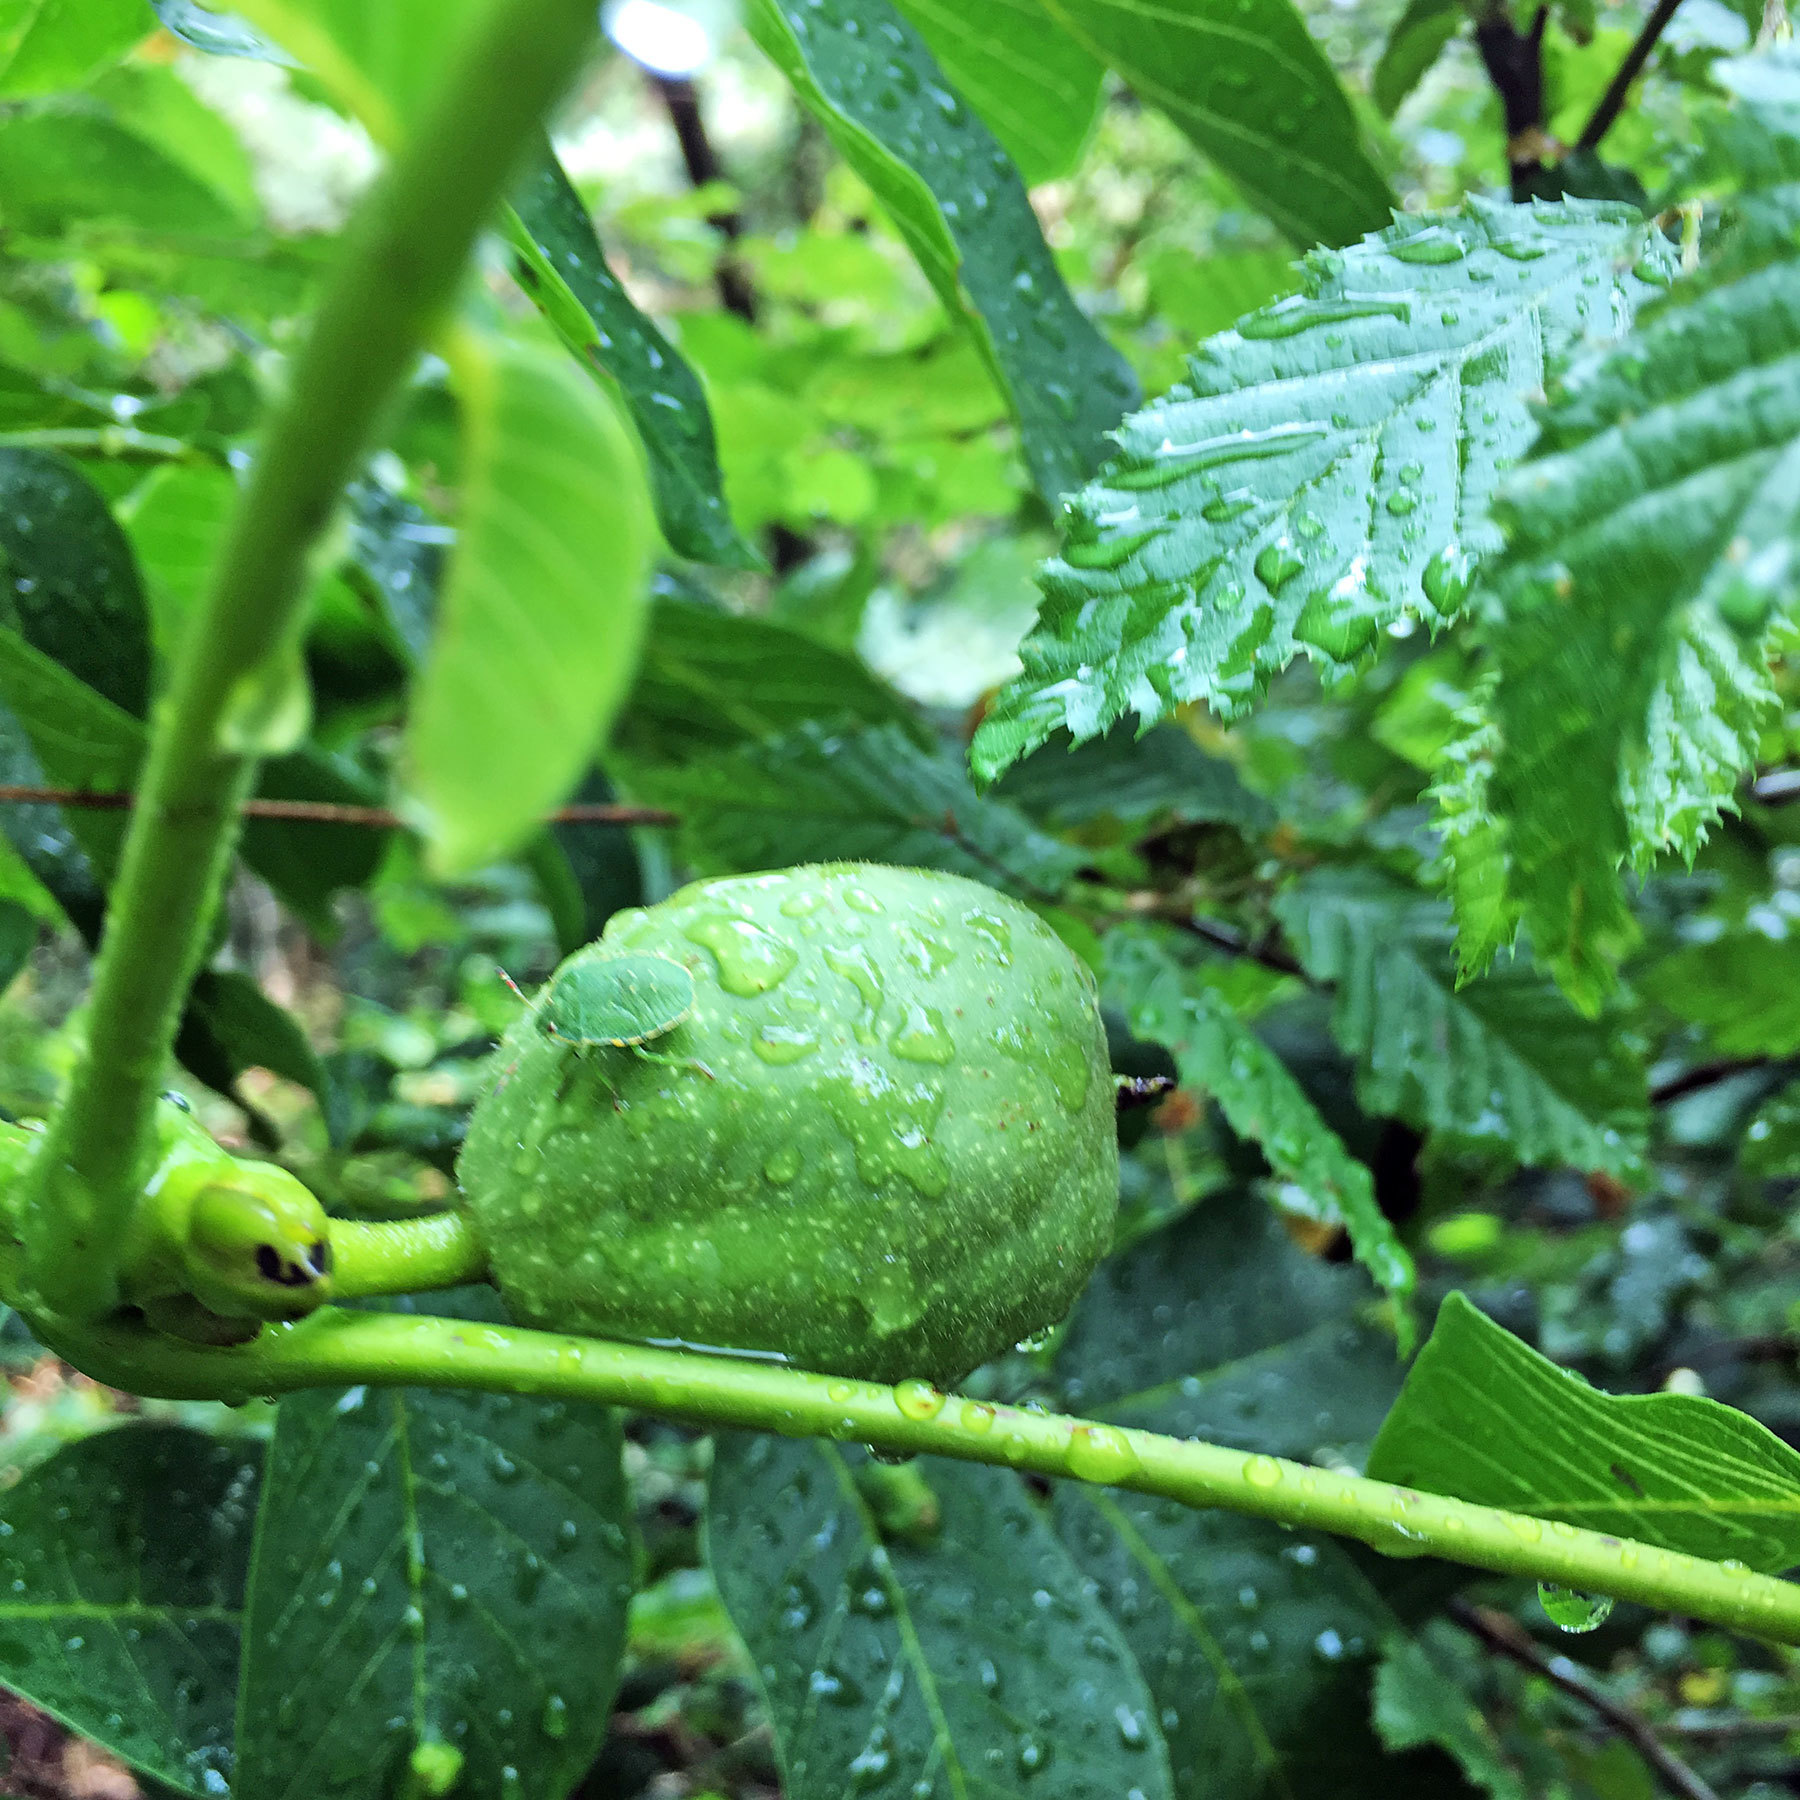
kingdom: Animalia
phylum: Arthropoda
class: Insecta
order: Hemiptera
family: Pentatomidae
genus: Palomena
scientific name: Palomena prasina
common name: Green shieldbug
